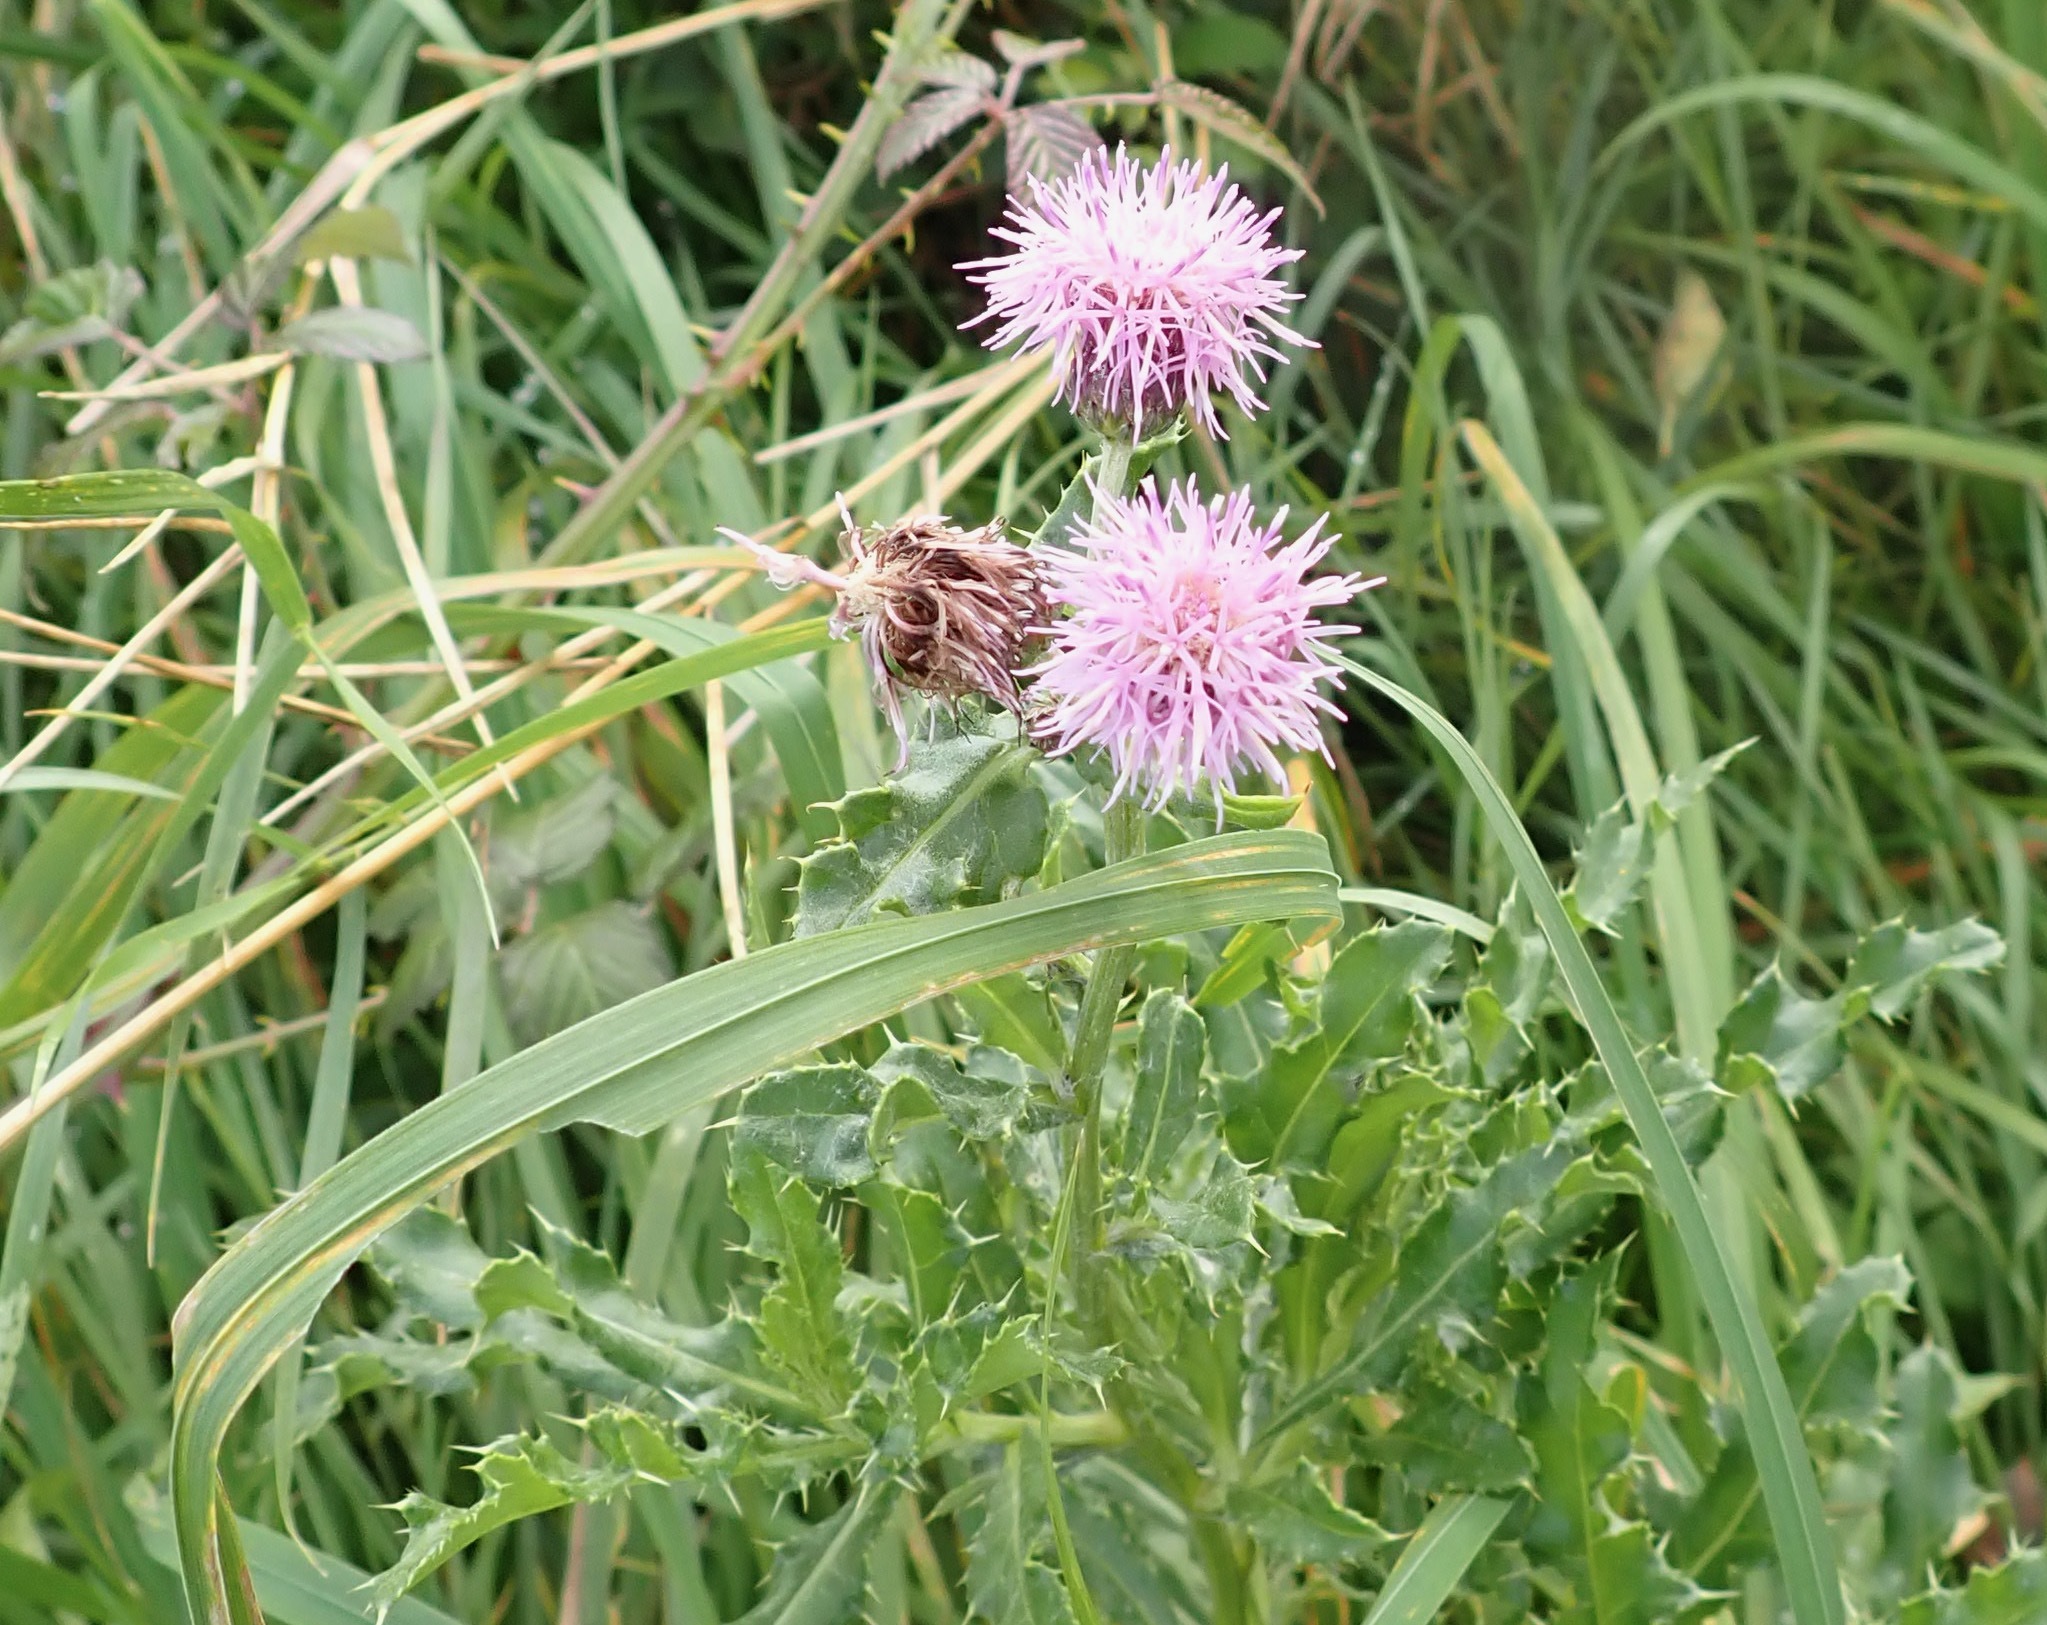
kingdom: Plantae
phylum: Tracheophyta
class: Magnoliopsida
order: Asterales
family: Asteraceae
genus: Cirsium
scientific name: Cirsium arvense
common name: Creeping thistle
